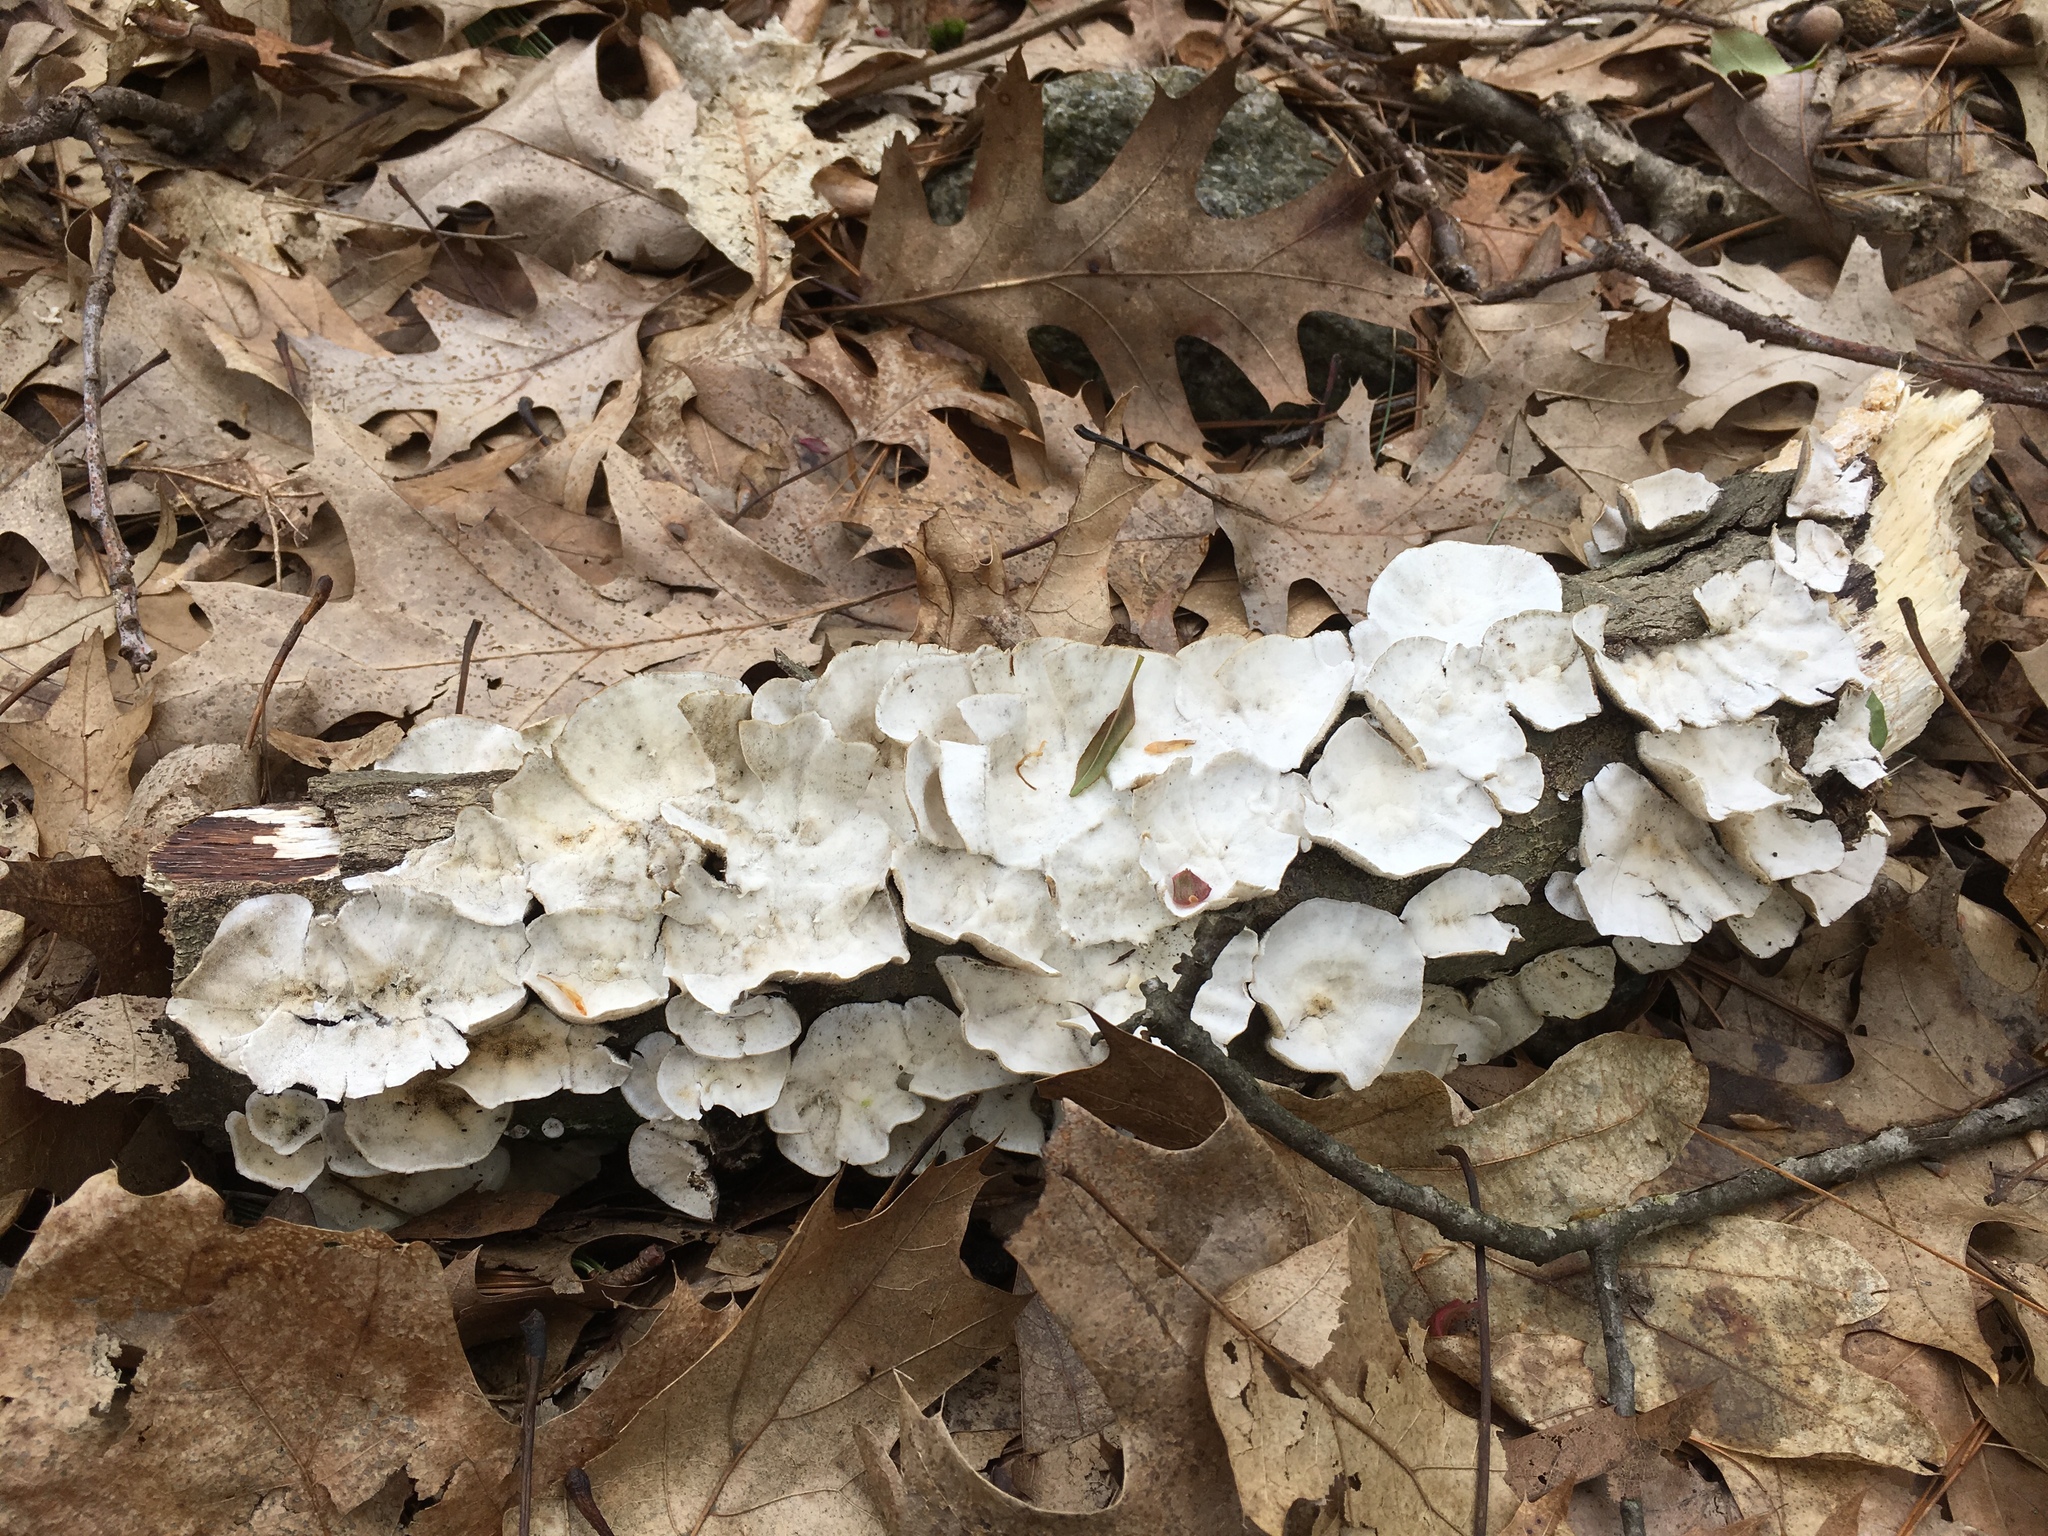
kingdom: Fungi
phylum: Basidiomycota
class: Agaricomycetes
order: Polyporales
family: Polyporaceae
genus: Trametes
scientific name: Trametes versicolor
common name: Turkeytail
